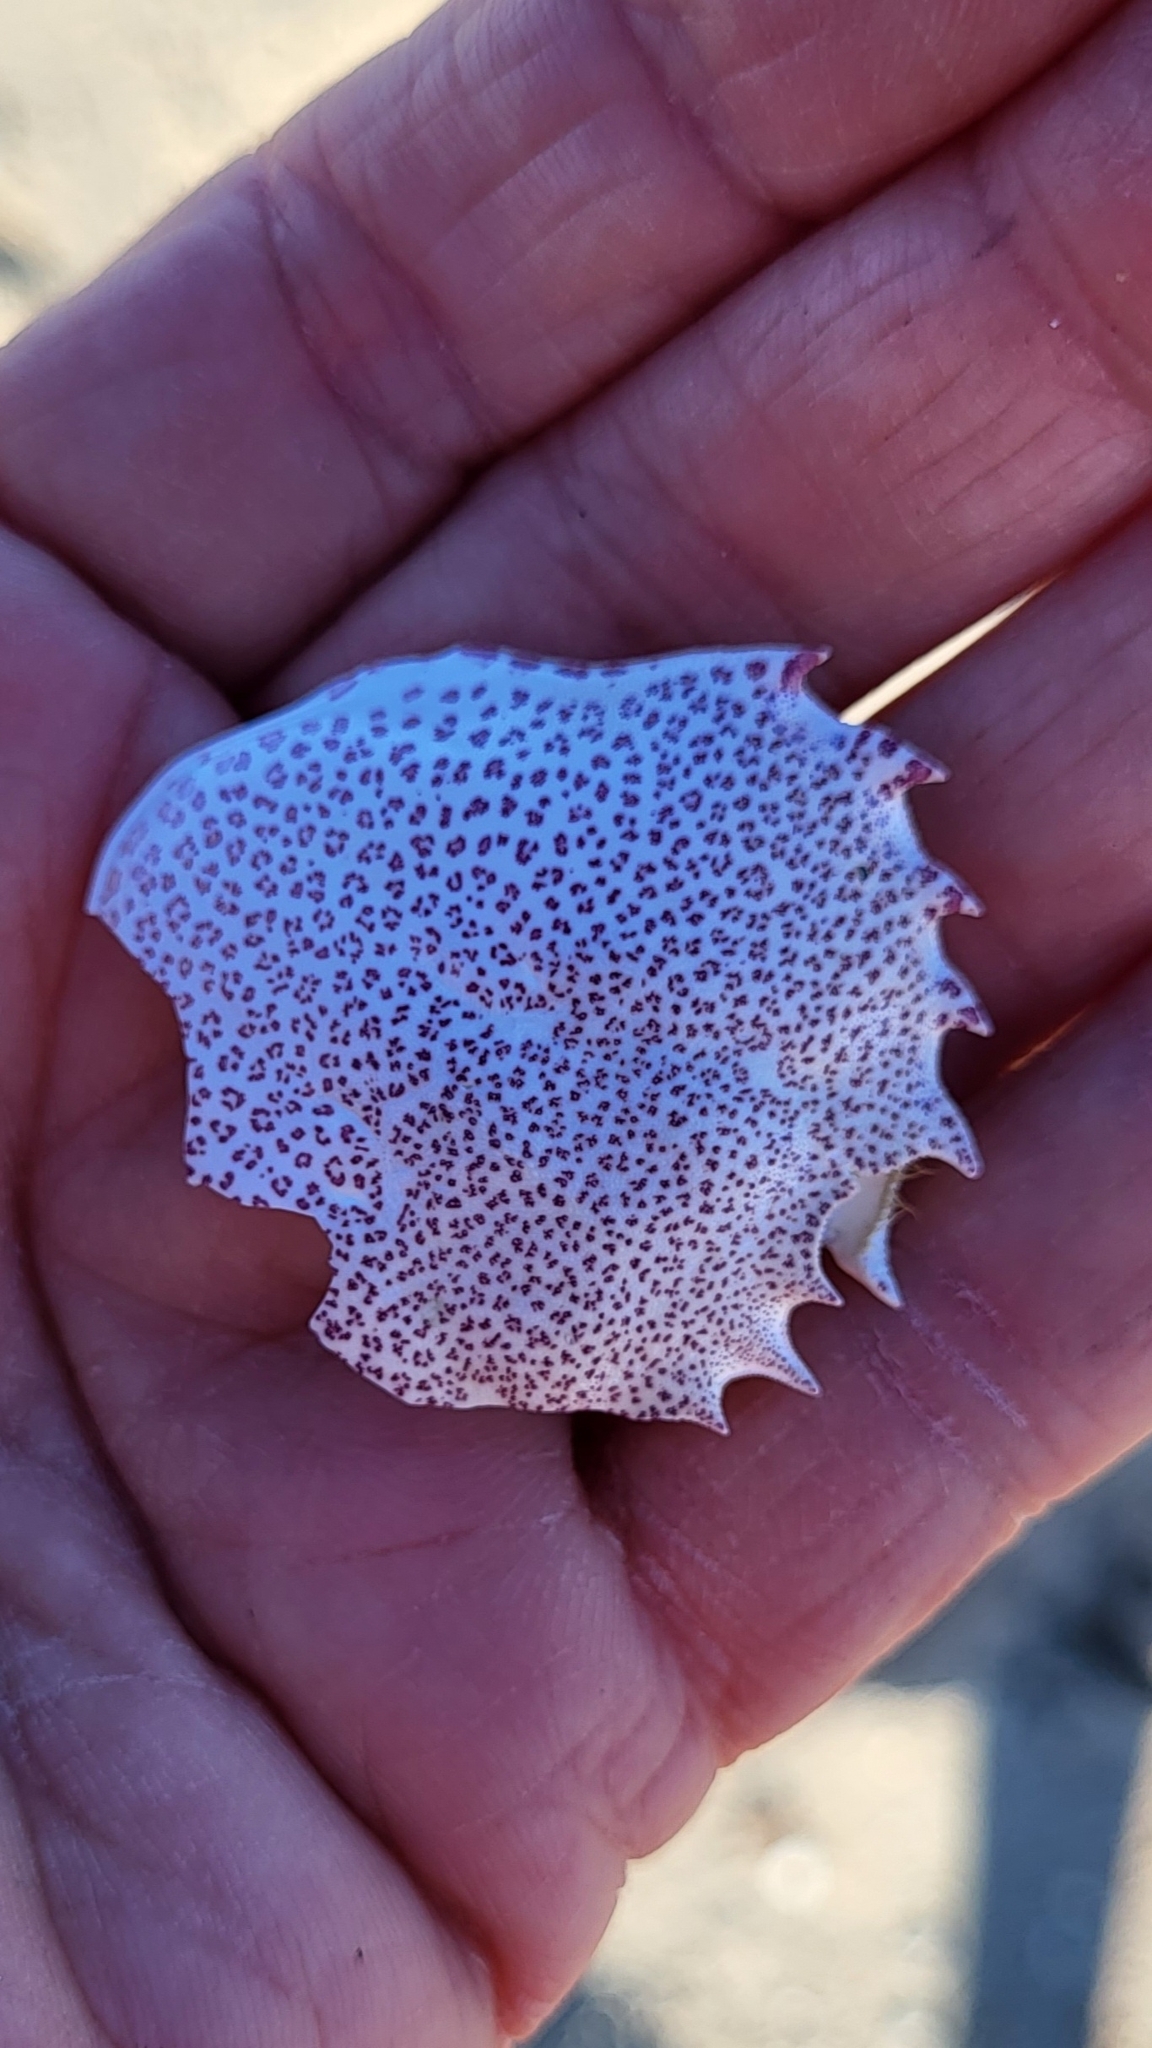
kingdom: Animalia
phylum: Arthropoda
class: Malacostraca
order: Decapoda
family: Ovalipidae
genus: Ovalipes
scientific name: Ovalipes ocellatus
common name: Lady crab
